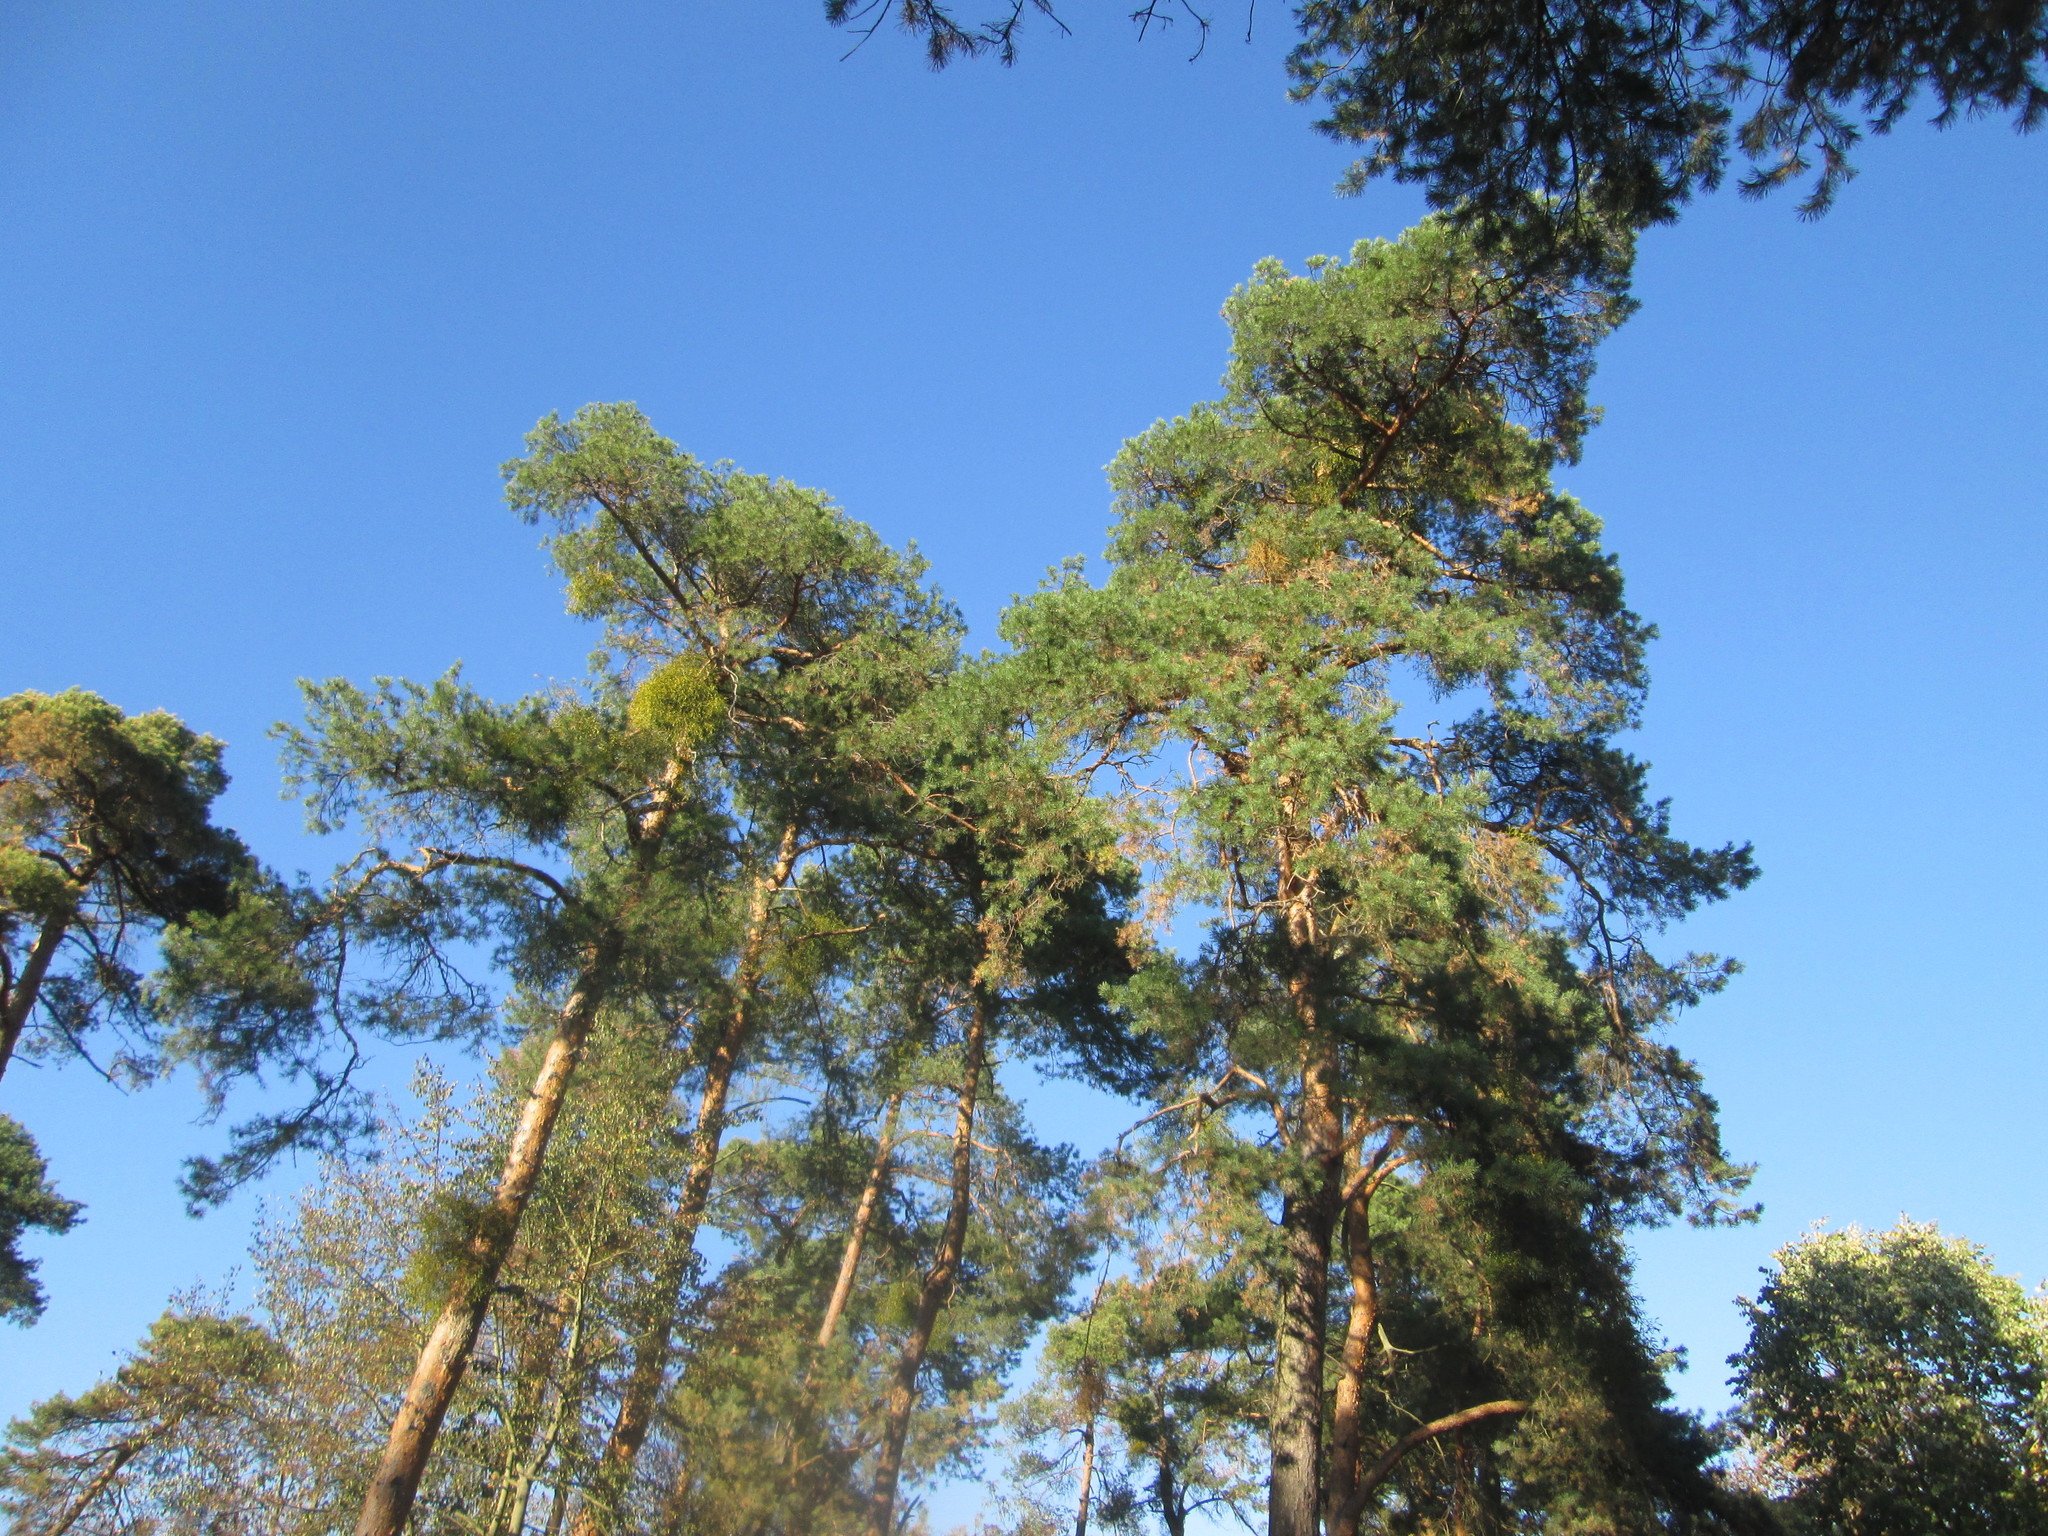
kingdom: Plantae
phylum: Tracheophyta
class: Pinopsida
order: Pinales
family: Pinaceae
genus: Pinus
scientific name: Pinus sylvestris
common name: Scots pine
